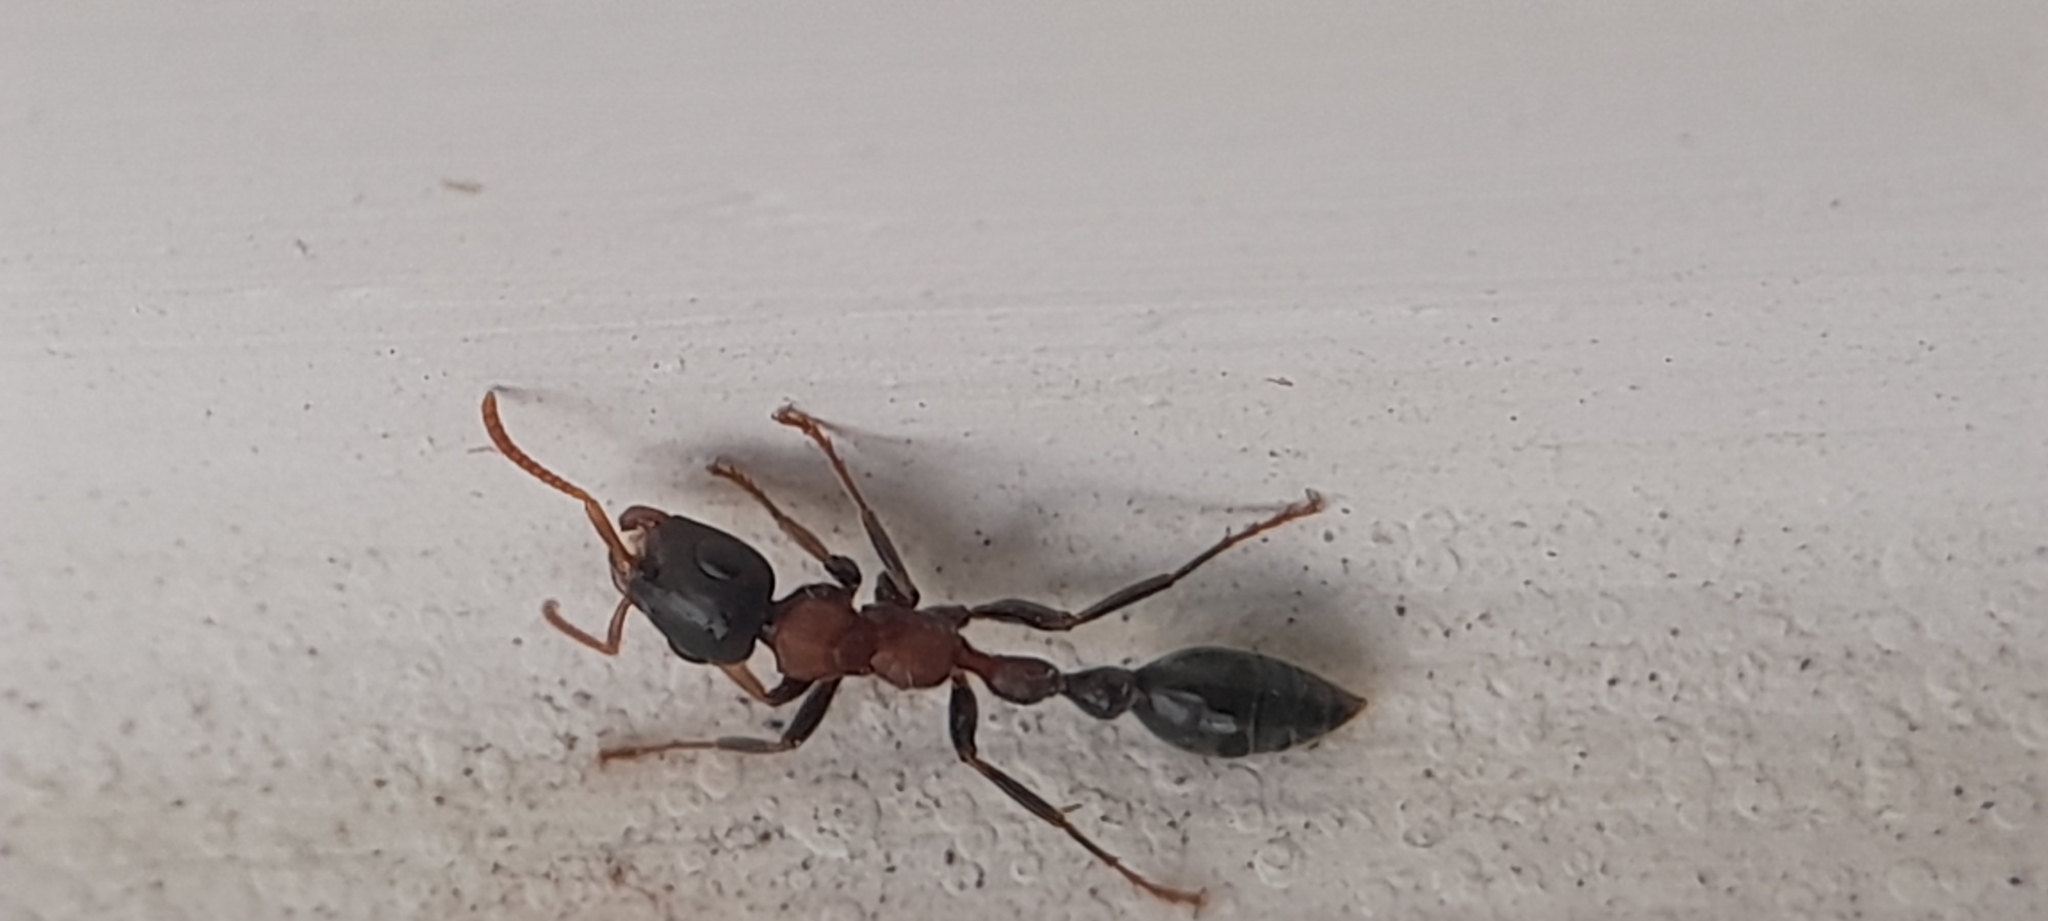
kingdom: Animalia
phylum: Arthropoda
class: Insecta
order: Hymenoptera
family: Formicidae
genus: Tetraponera
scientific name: Tetraponera rufonigra
